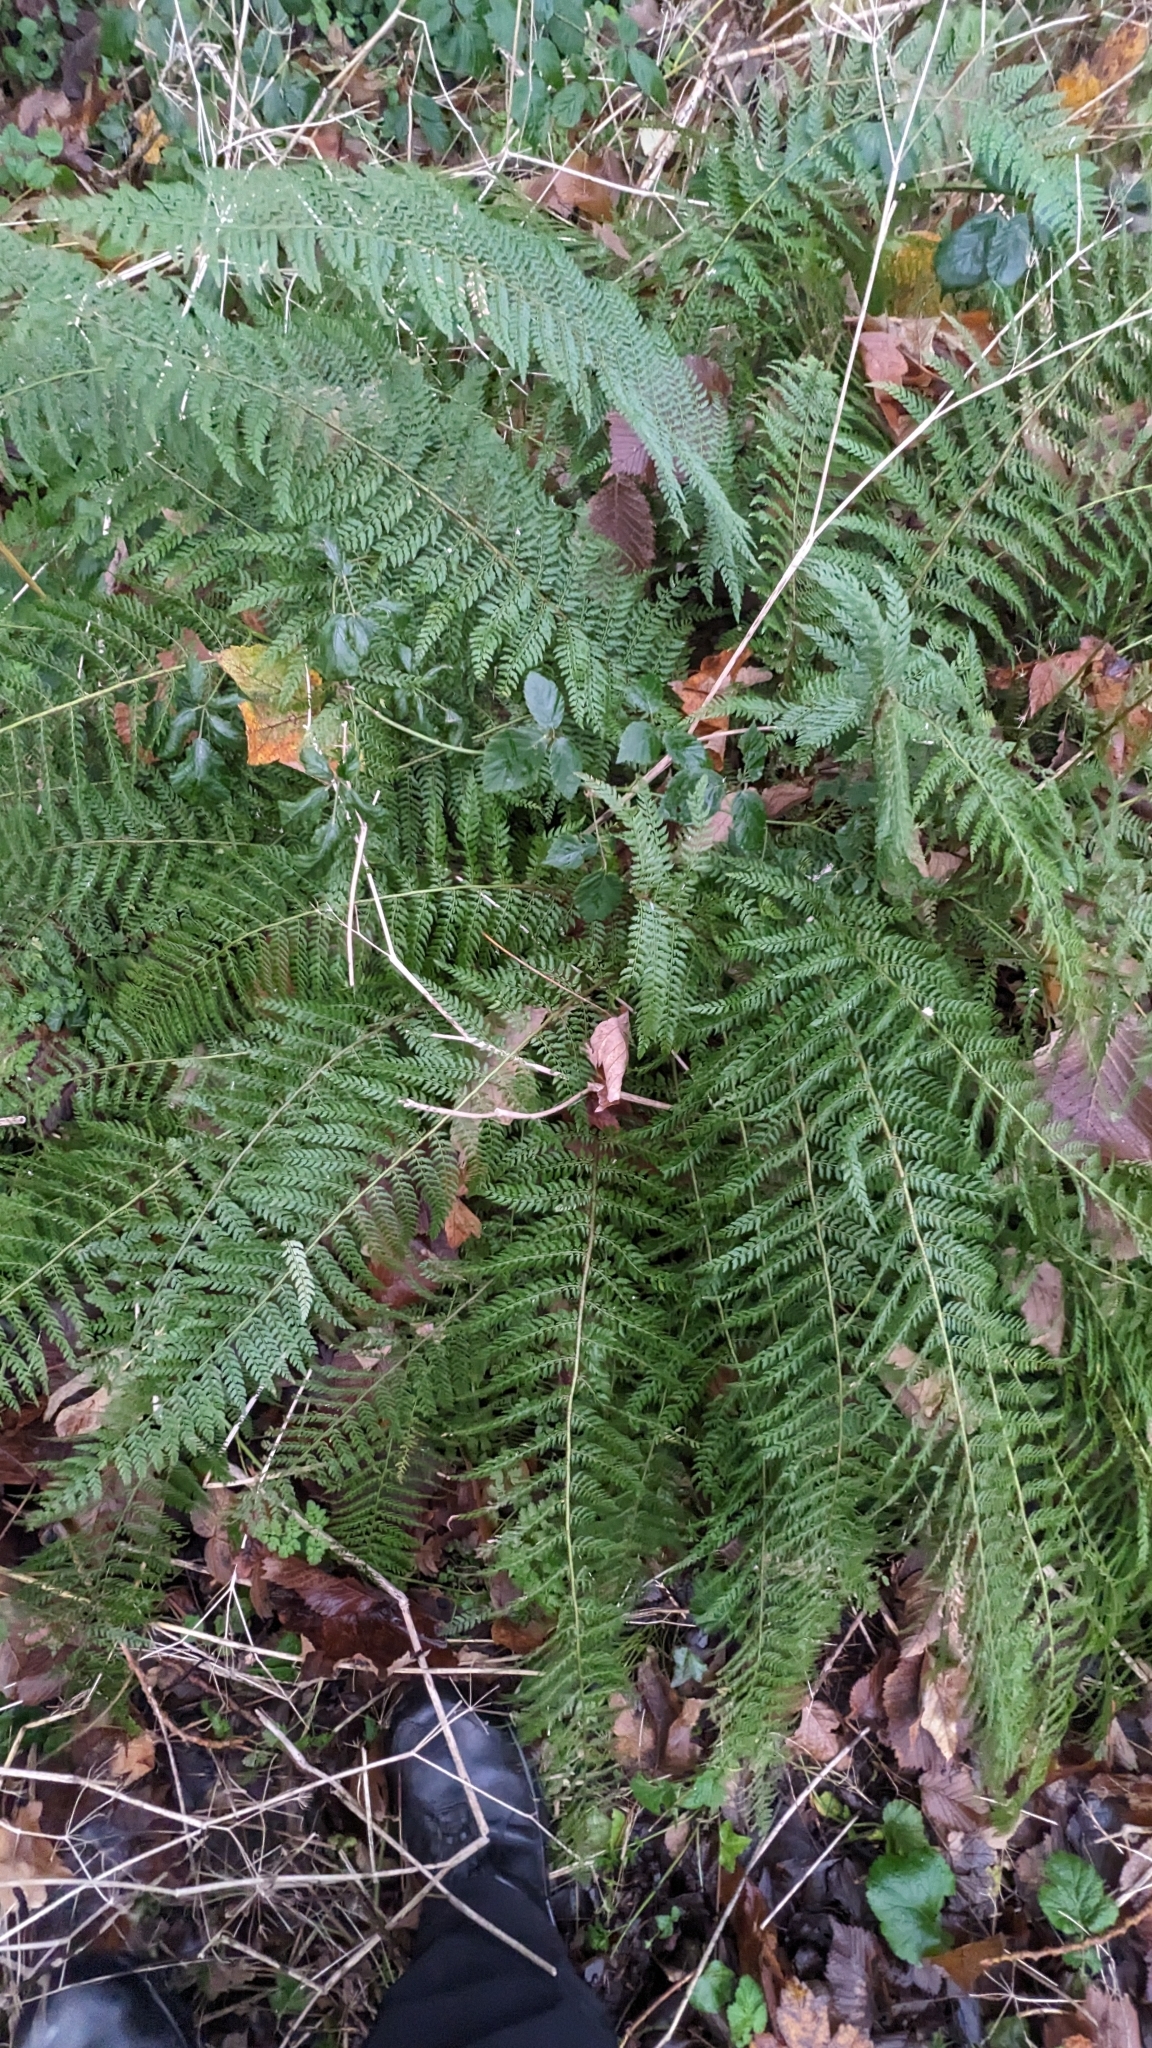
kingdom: Plantae
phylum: Tracheophyta
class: Polypodiopsida
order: Polypodiales
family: Dryopteridaceae
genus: Polystichum
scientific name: Polystichum setiferum
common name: Soft shield-fern
